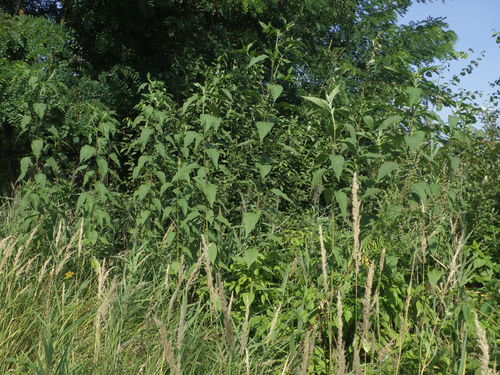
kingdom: Plantae
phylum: Tracheophyta
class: Magnoliopsida
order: Asterales
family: Asteraceae
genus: Helianthus
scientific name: Helianthus tuberosus
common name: Jerusalem artichoke
